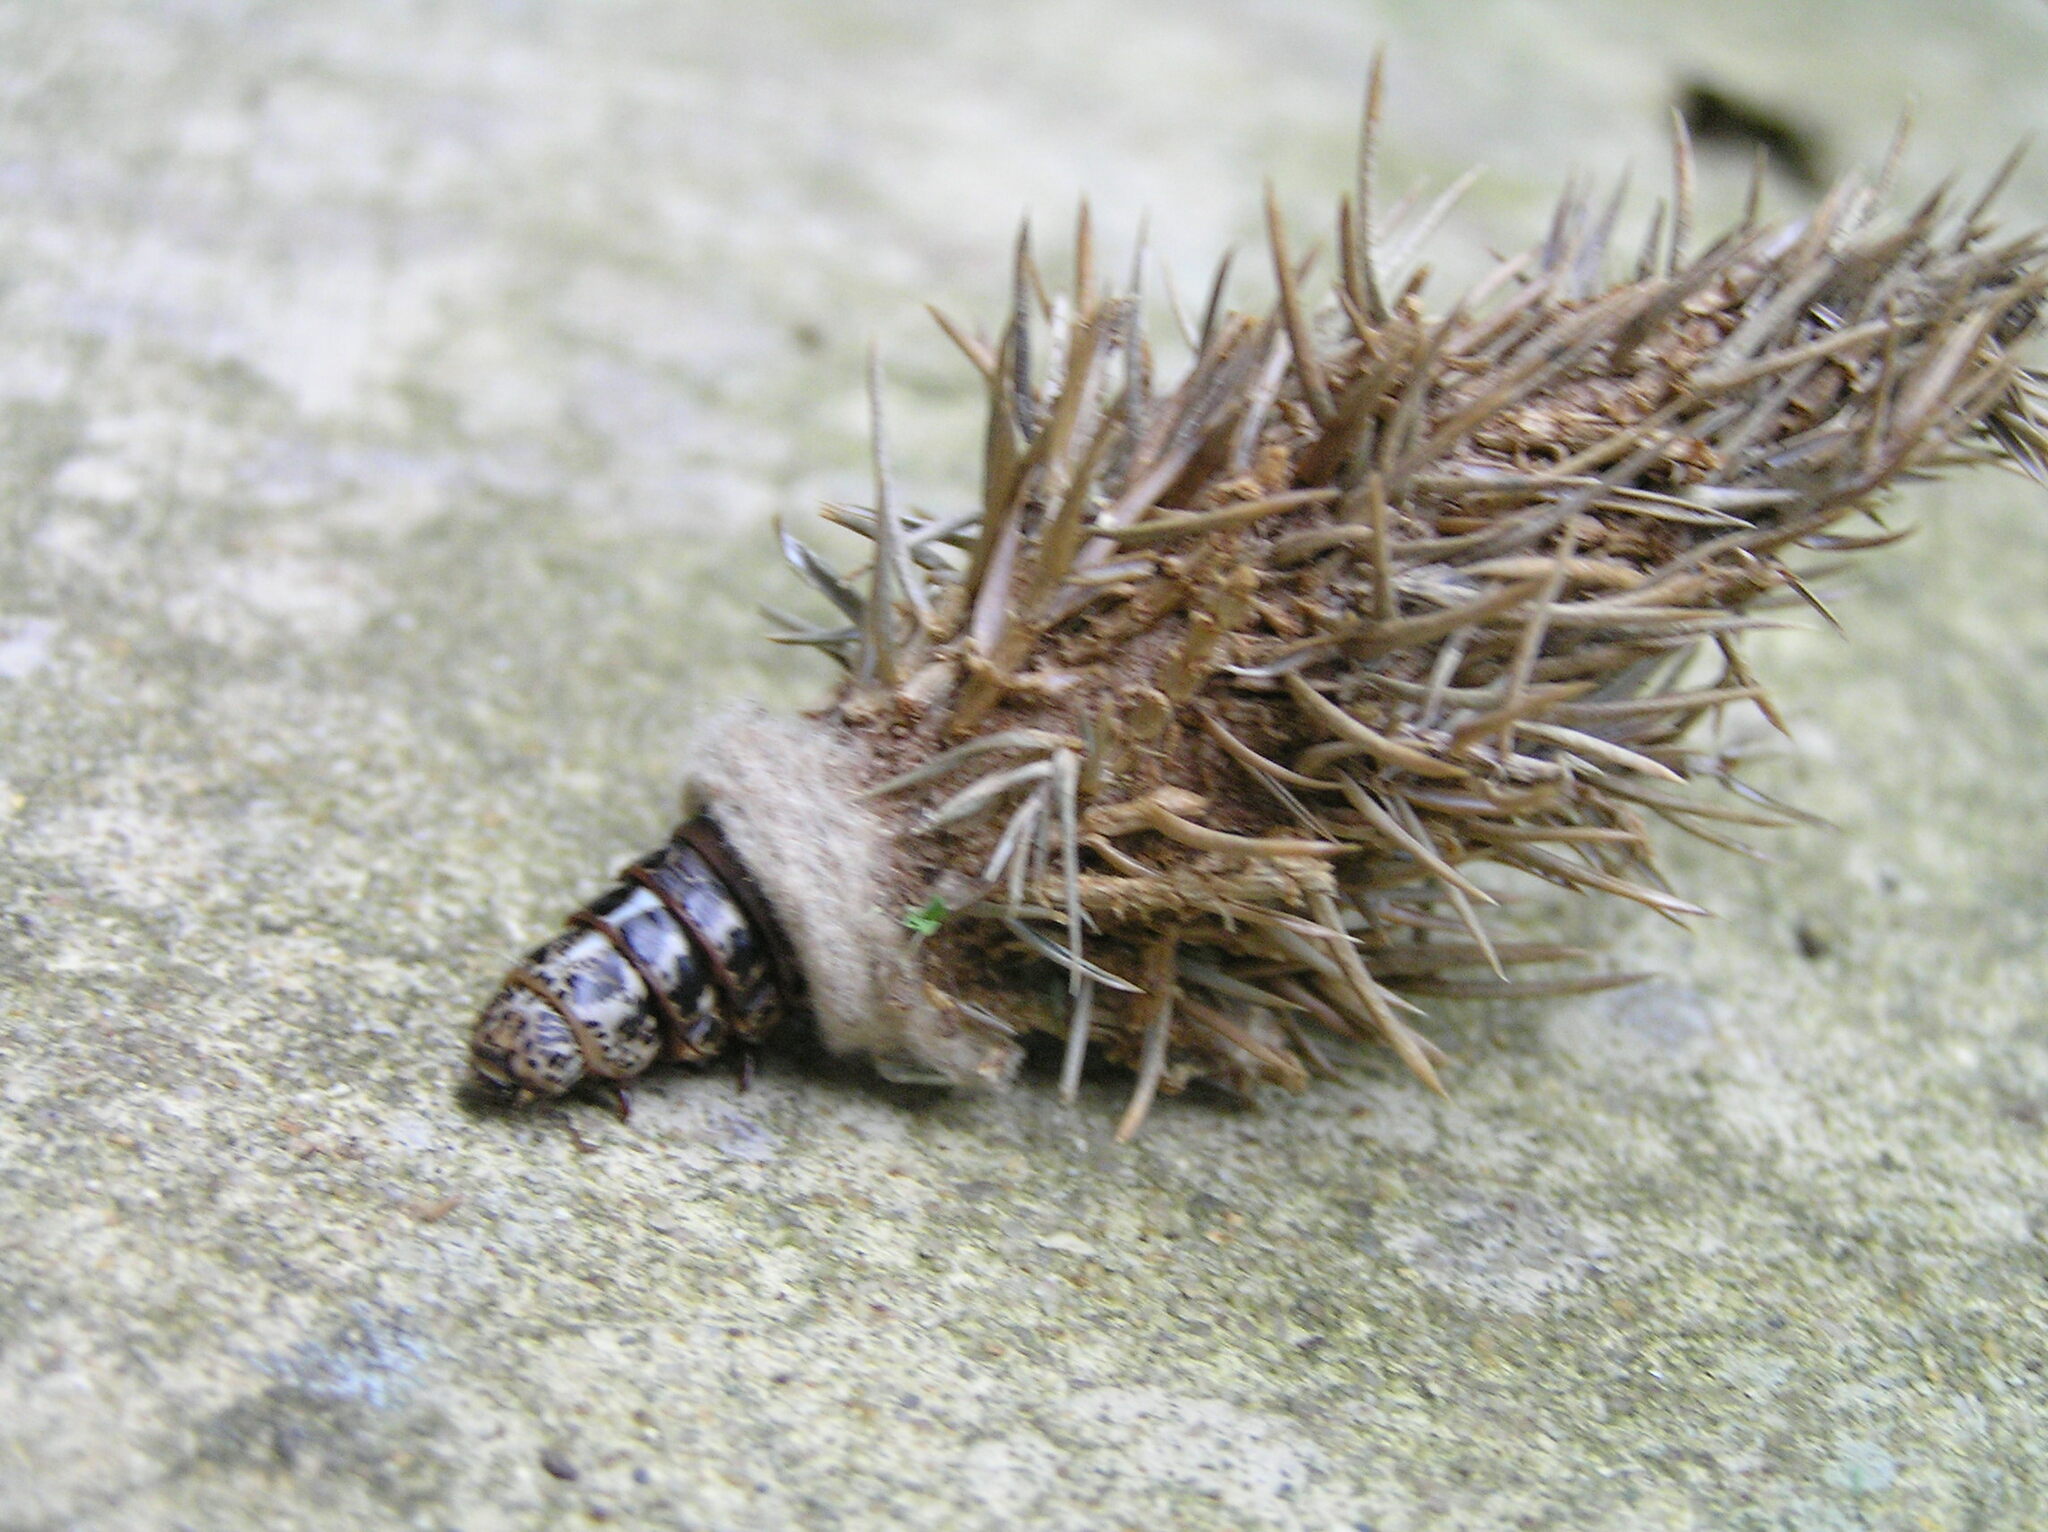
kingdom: Animalia
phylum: Arthropoda
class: Insecta
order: Lepidoptera
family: Psychidae
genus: Thyridopteryx
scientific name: Thyridopteryx ephemeraeformis
